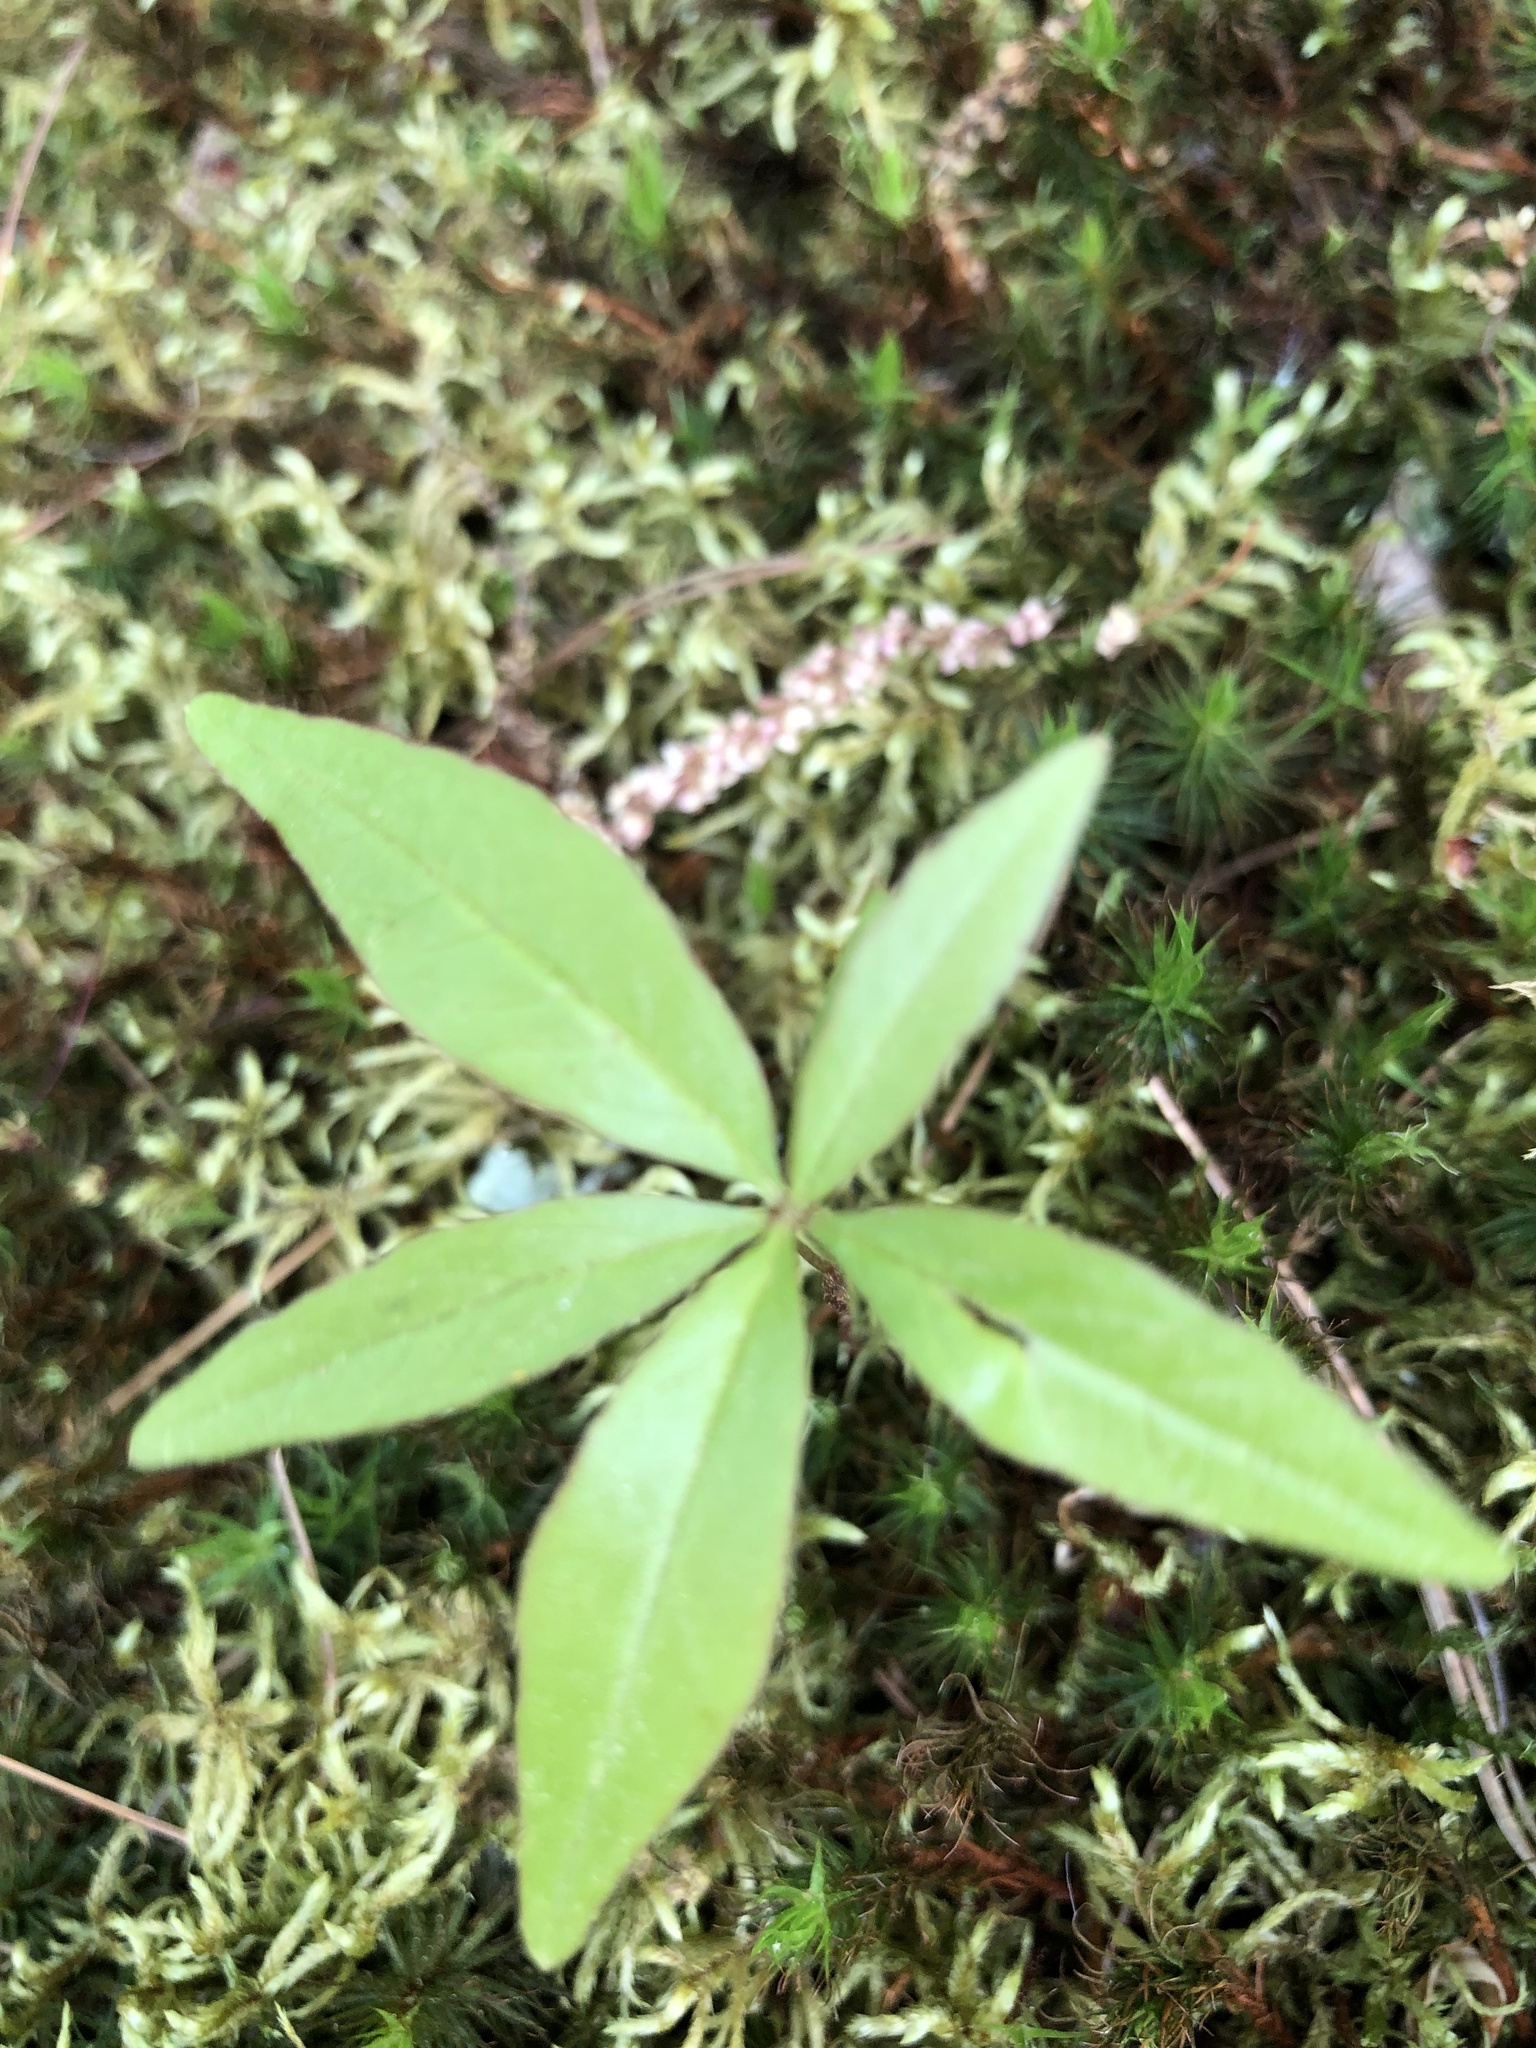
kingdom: Plantae
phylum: Tracheophyta
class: Magnoliopsida
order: Ericales
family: Primulaceae
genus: Lysimachia
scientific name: Lysimachia borealis
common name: American starflower
